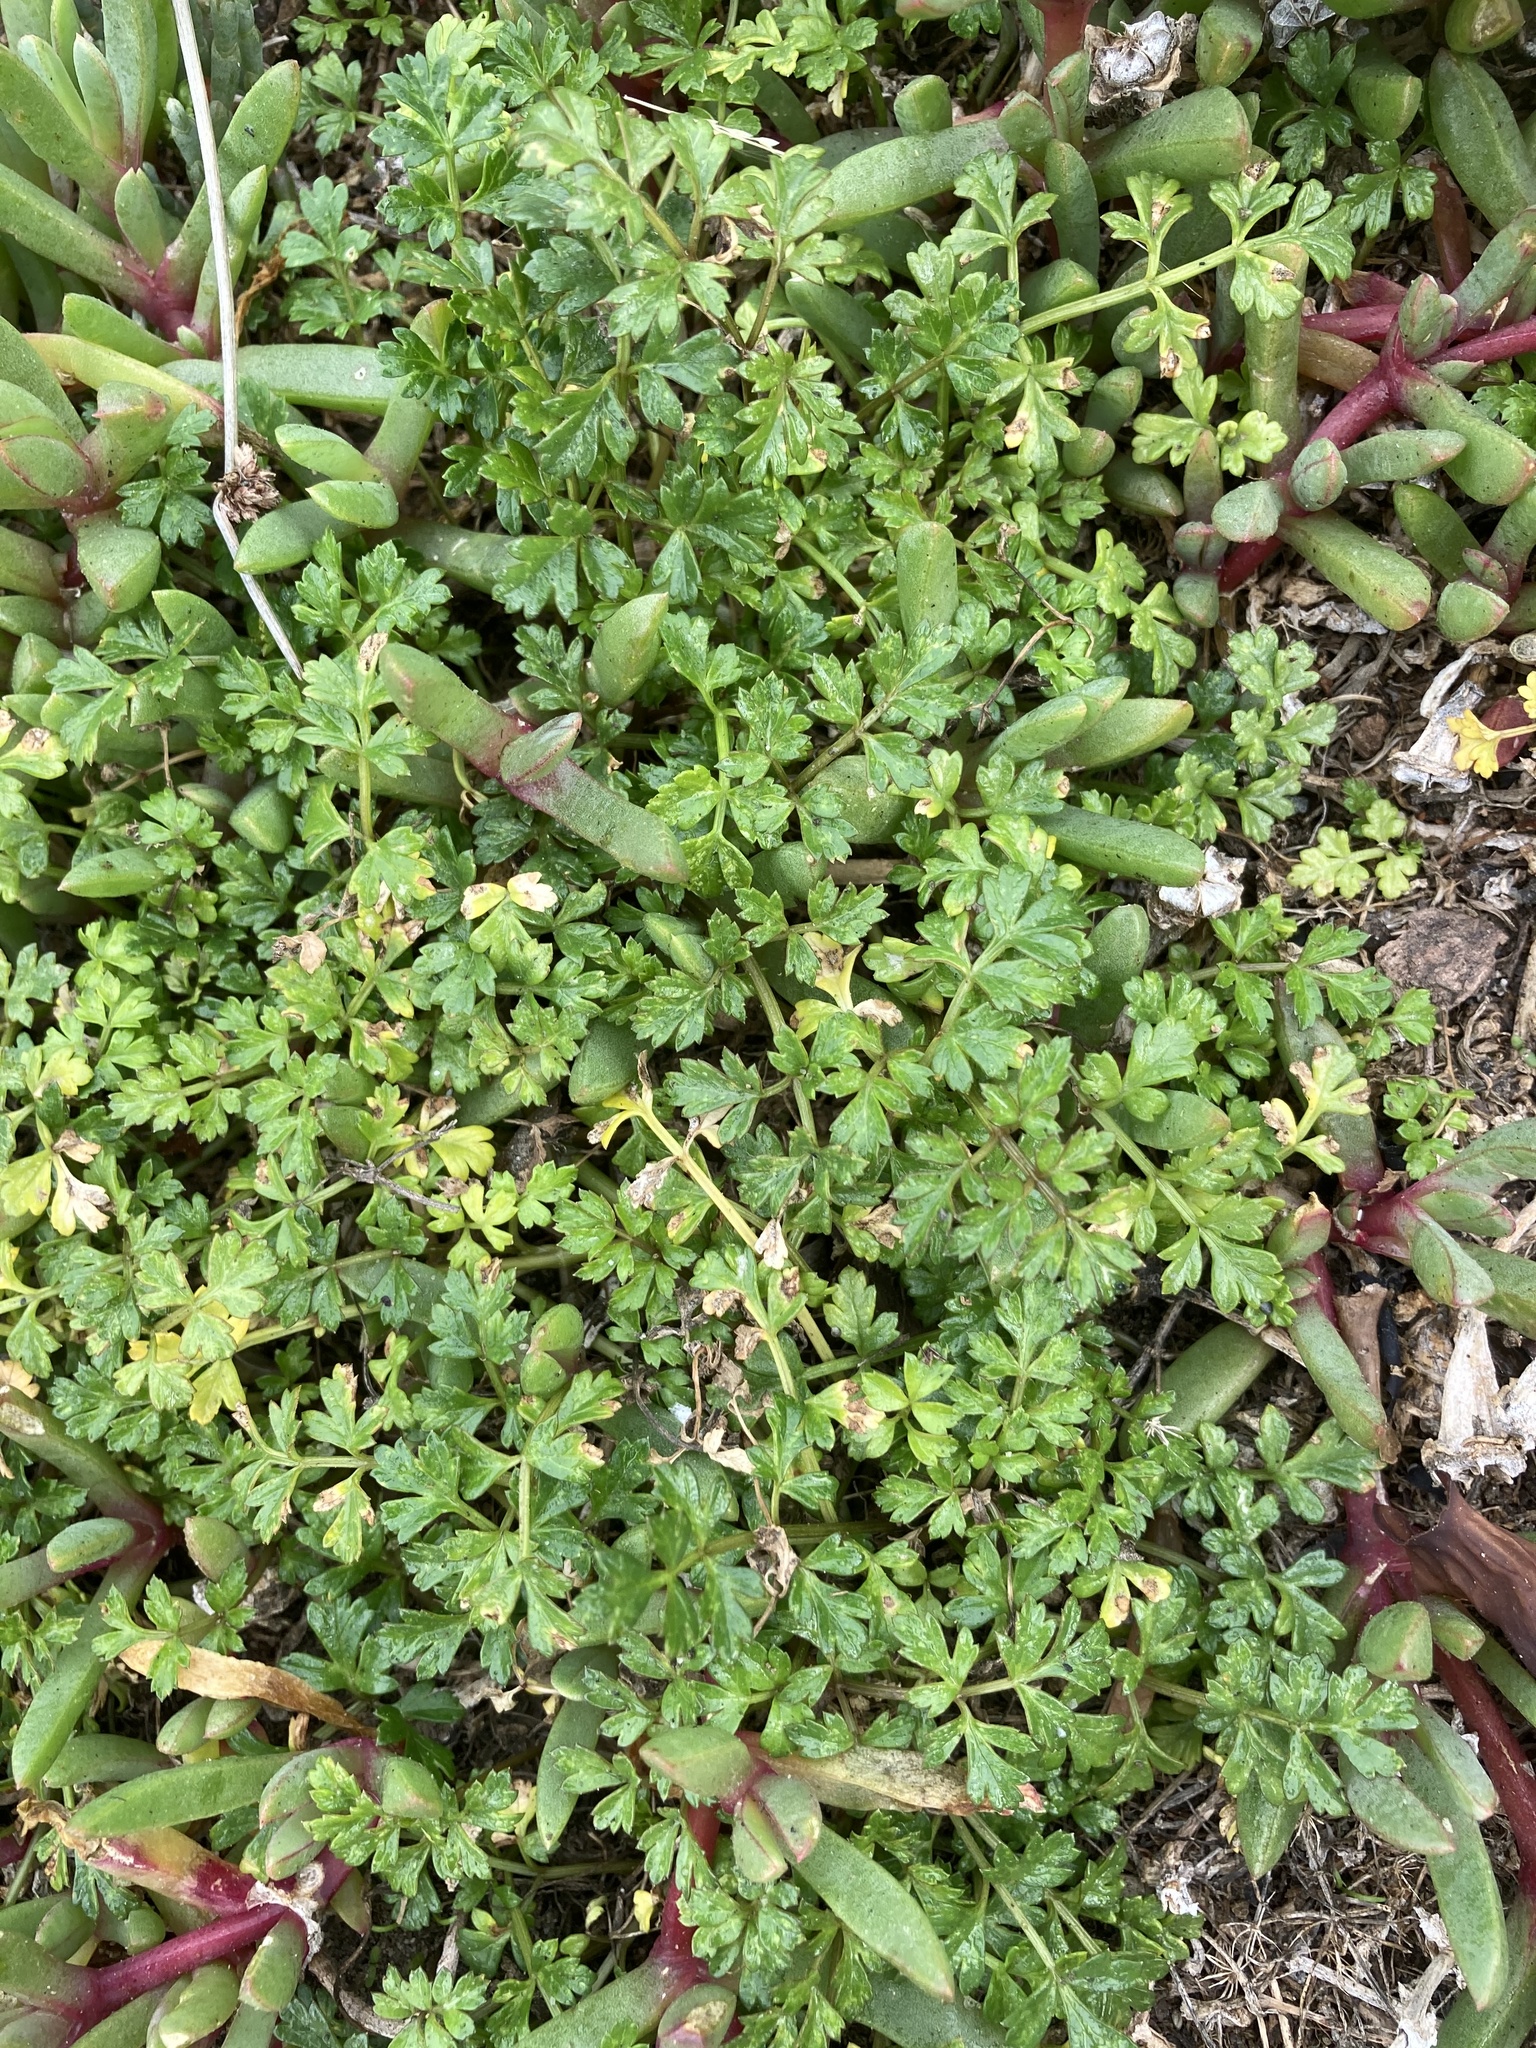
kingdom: Plantae
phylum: Tracheophyta
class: Magnoliopsida
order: Apiales
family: Apiaceae
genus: Apium
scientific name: Apium prostratum
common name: Prostrate marshwort
